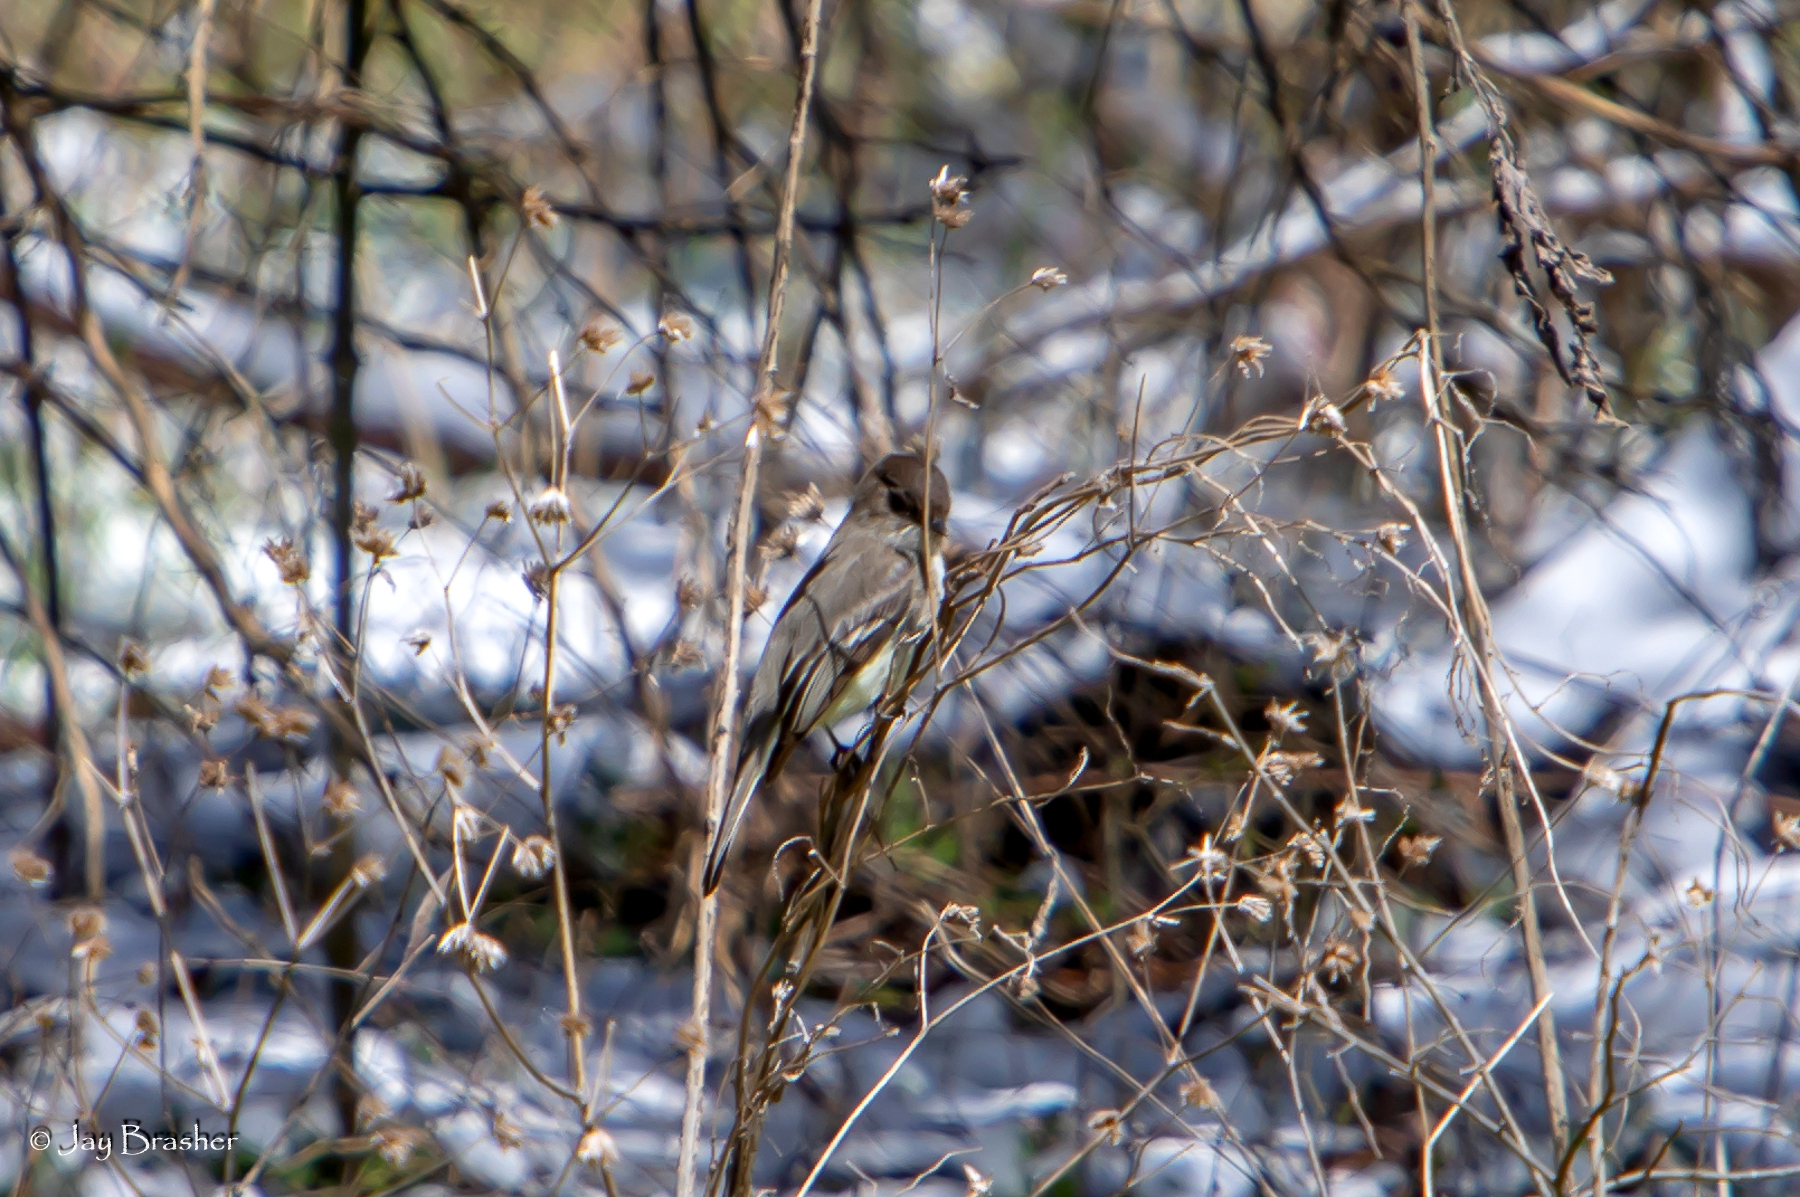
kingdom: Animalia
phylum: Chordata
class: Aves
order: Passeriformes
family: Tyrannidae
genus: Sayornis
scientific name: Sayornis phoebe
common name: Eastern phoebe
